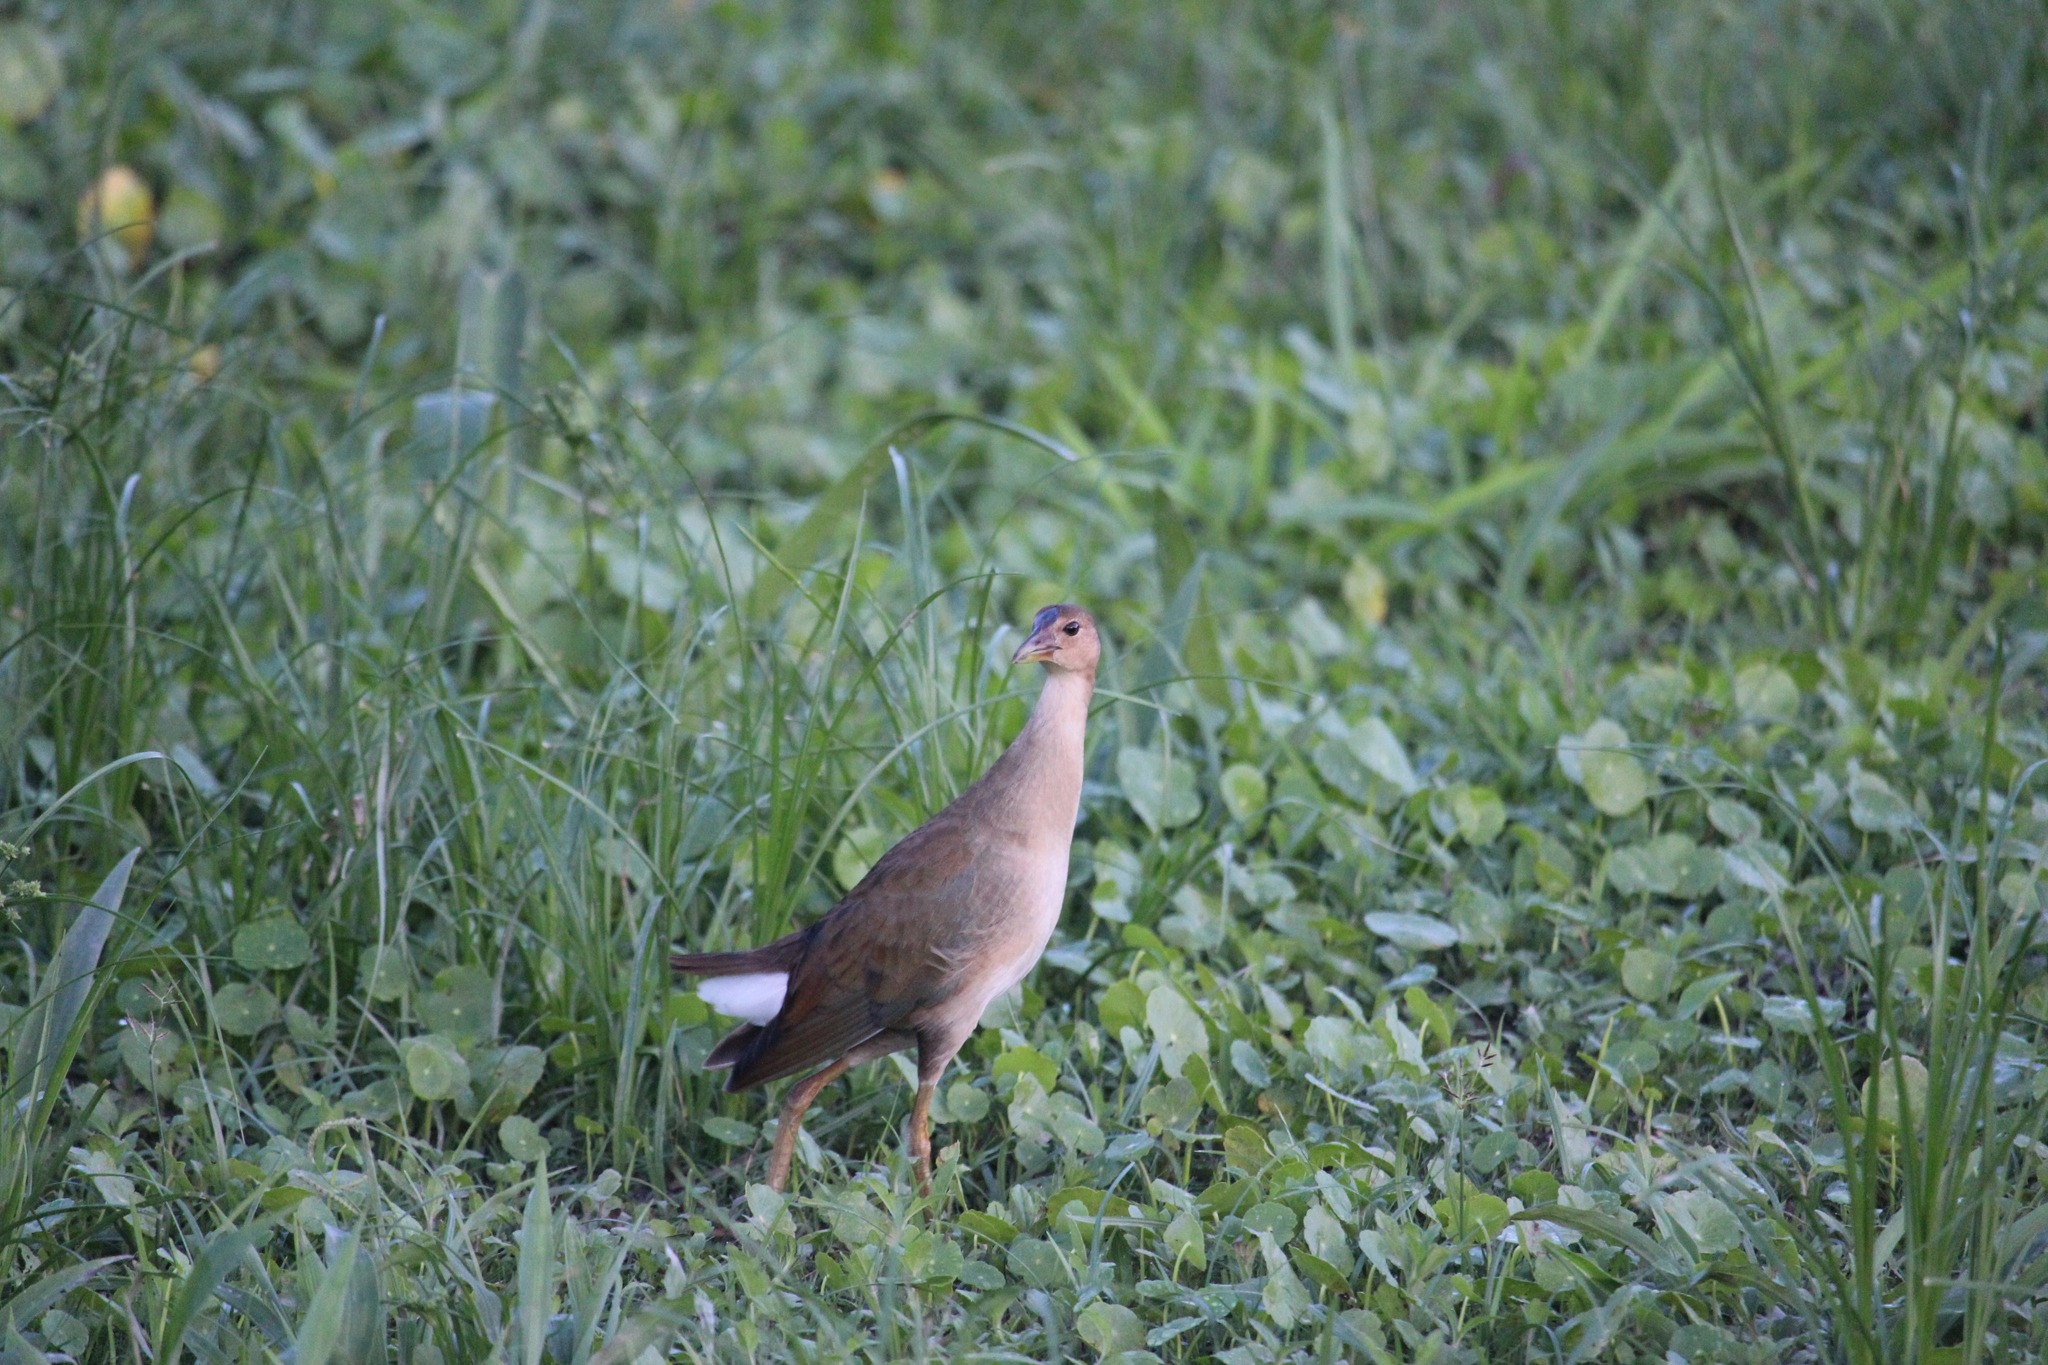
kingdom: Animalia
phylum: Chordata
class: Aves
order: Gruiformes
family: Rallidae
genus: Porphyrio
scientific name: Porphyrio martinica
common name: Purple gallinule
